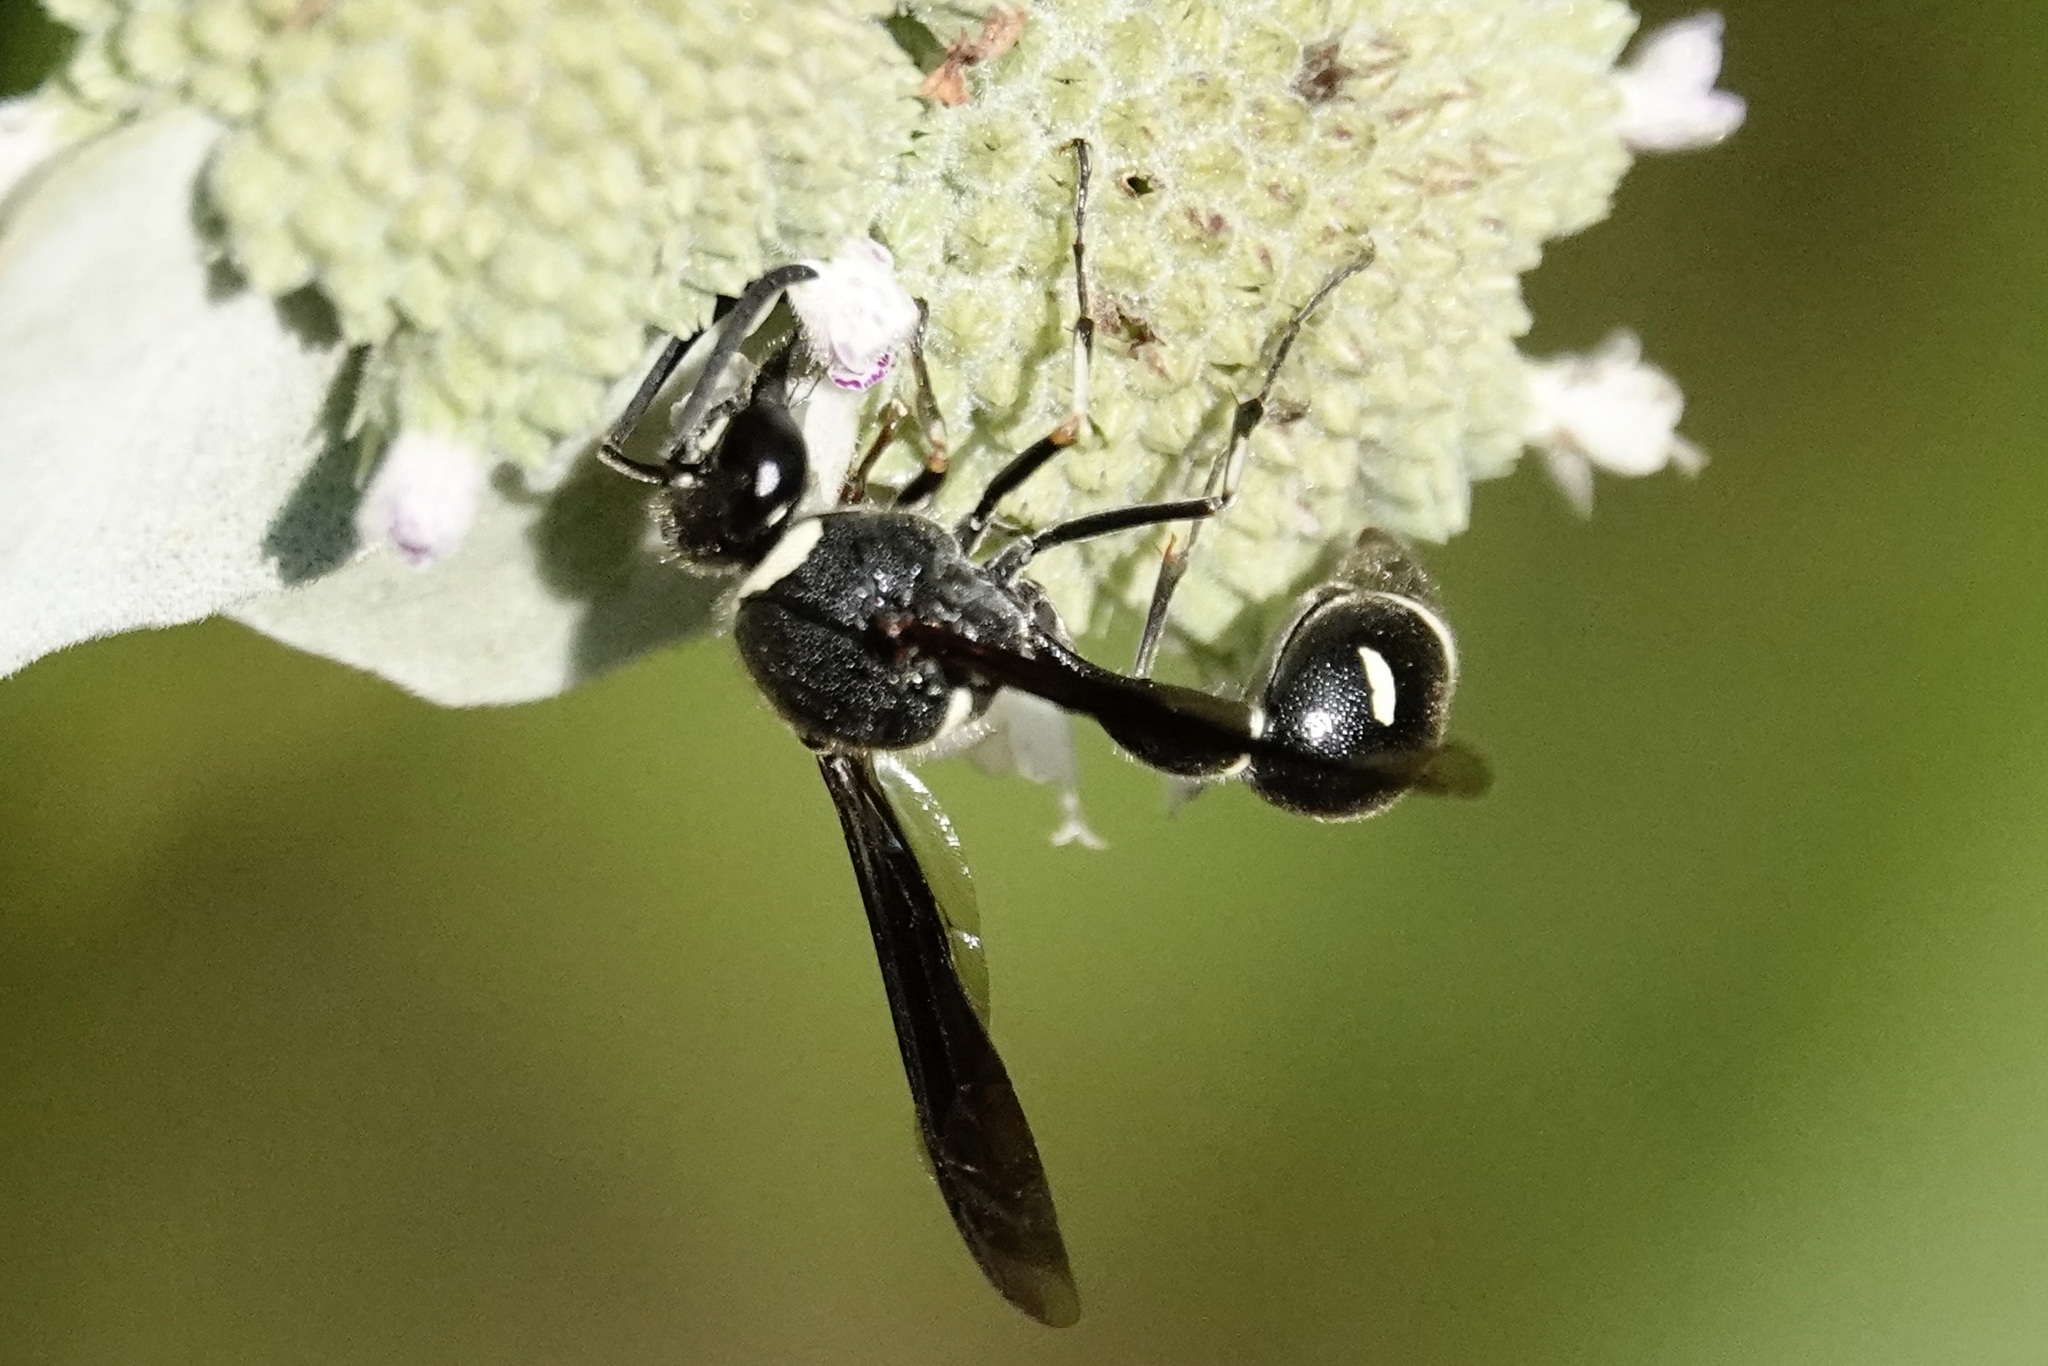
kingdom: Animalia
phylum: Arthropoda
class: Insecta
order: Hymenoptera
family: Vespidae
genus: Eumenes
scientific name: Eumenes fraternus
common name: Fraternal potter wasp
